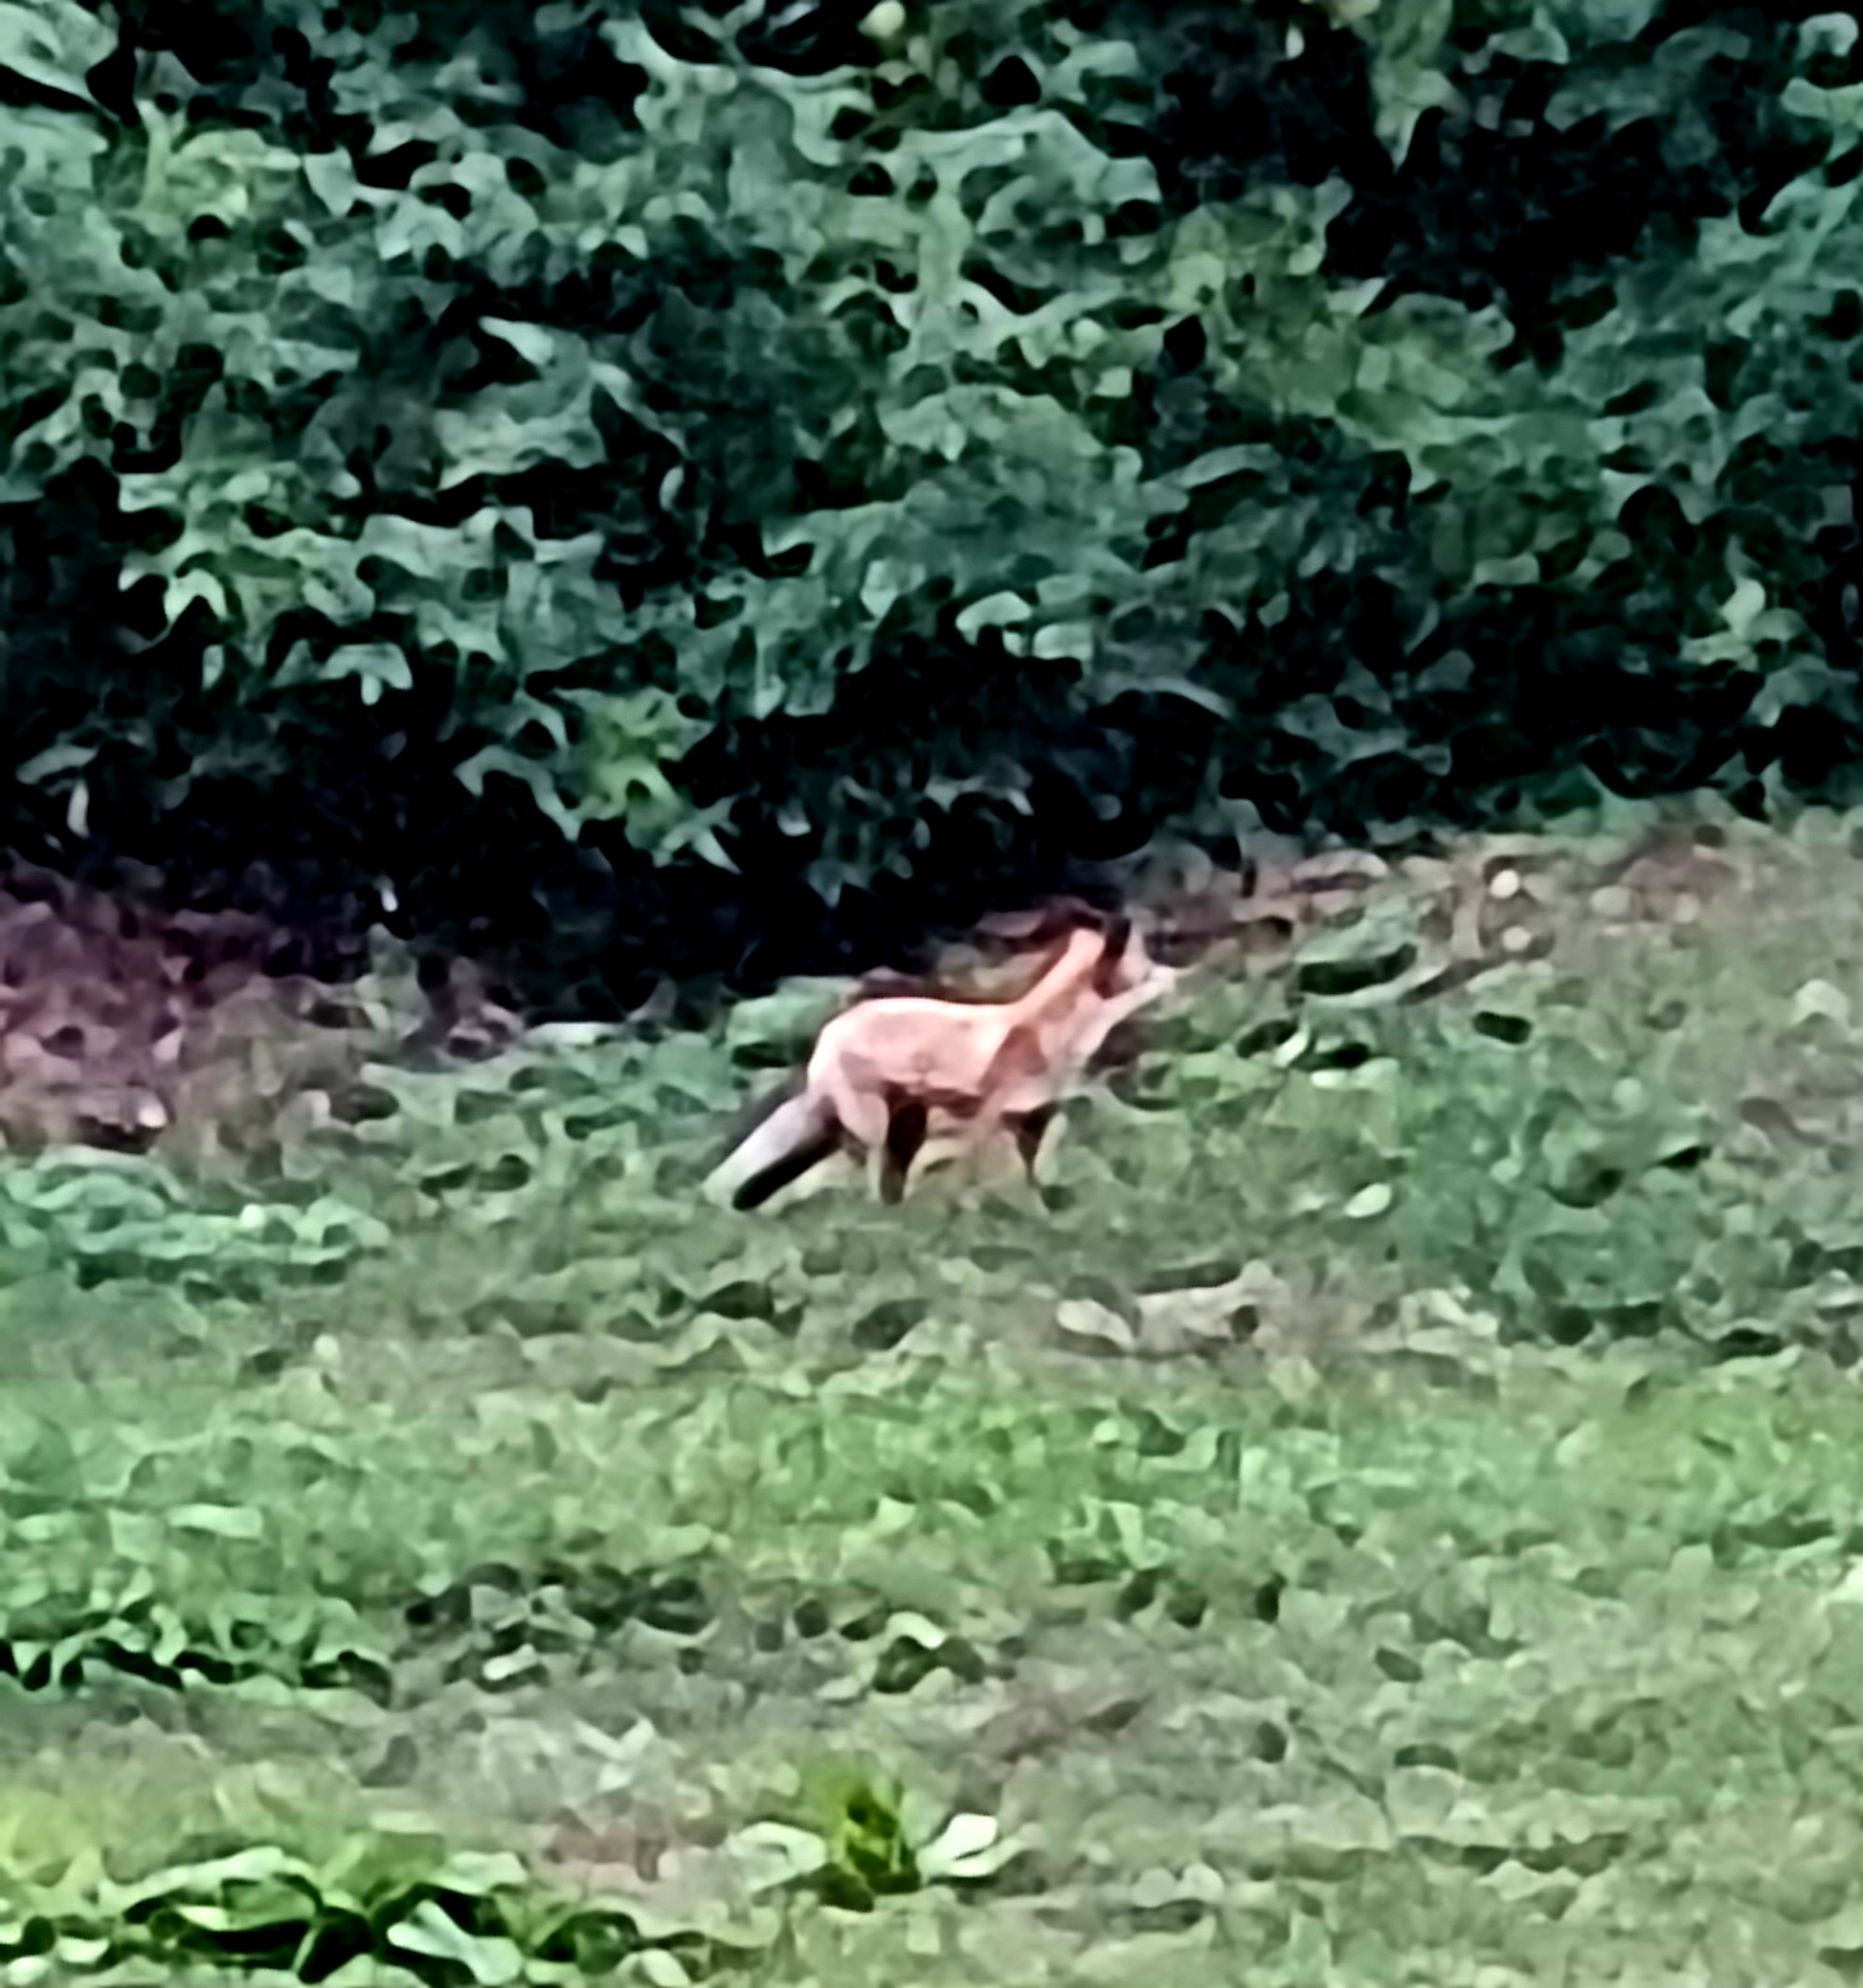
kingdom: Animalia
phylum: Chordata
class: Mammalia
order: Carnivora
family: Canidae
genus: Vulpes
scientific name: Vulpes vulpes
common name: Red fox
